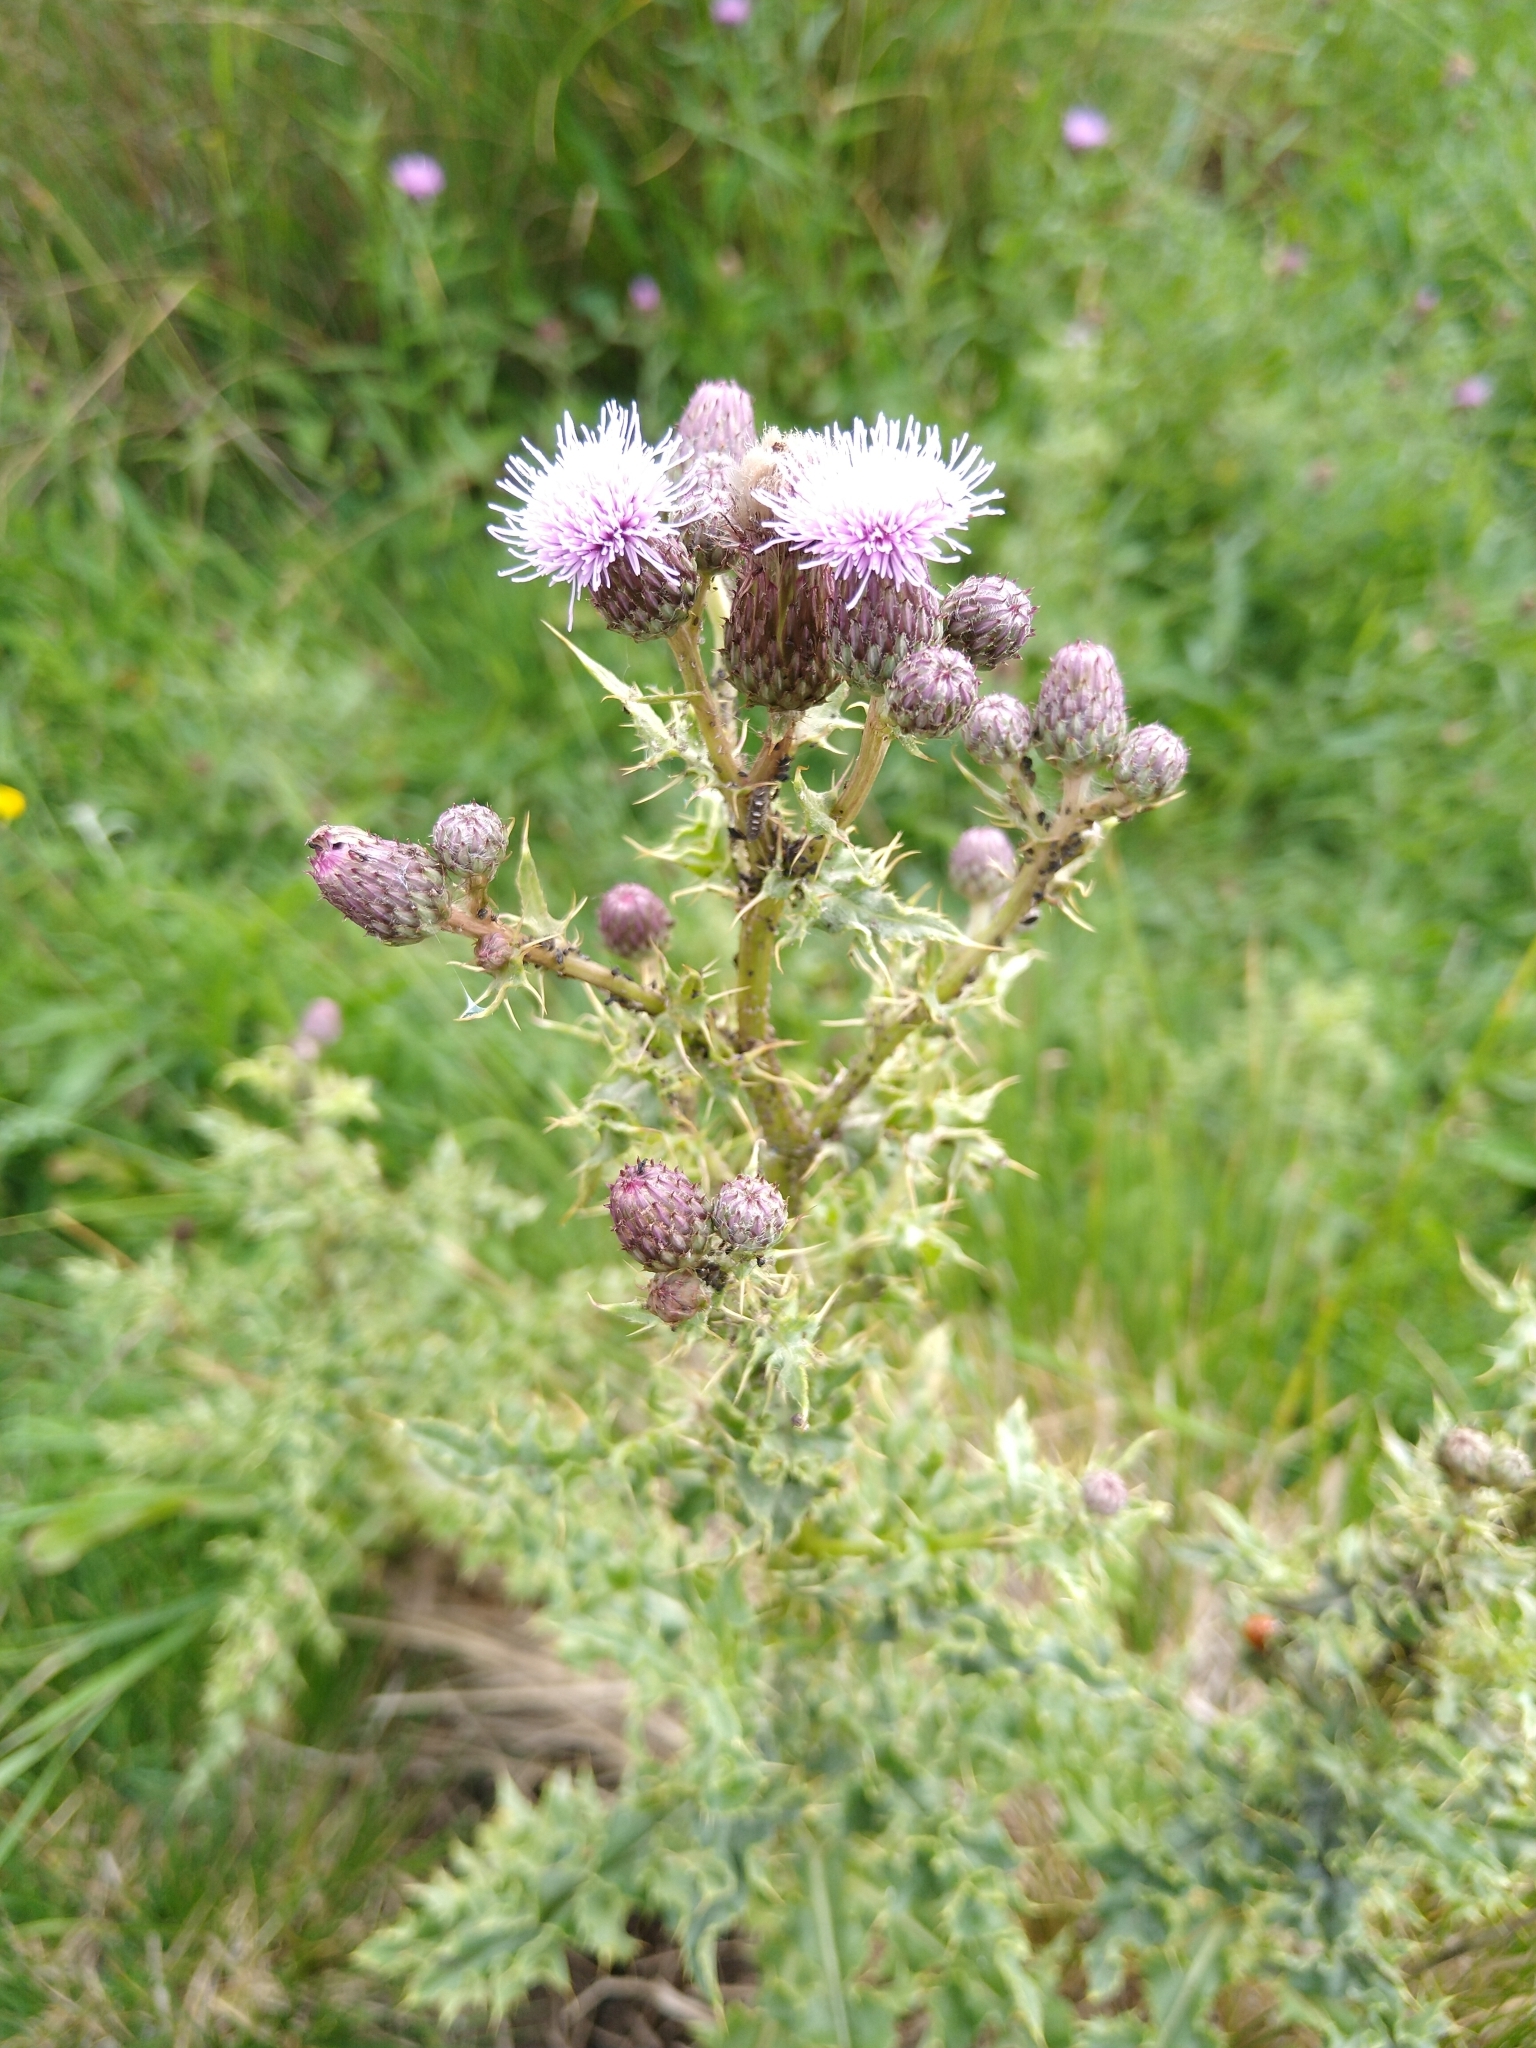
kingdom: Plantae
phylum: Tracheophyta
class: Magnoliopsida
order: Asterales
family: Asteraceae
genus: Cirsium
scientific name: Cirsium arvense
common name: Creeping thistle
